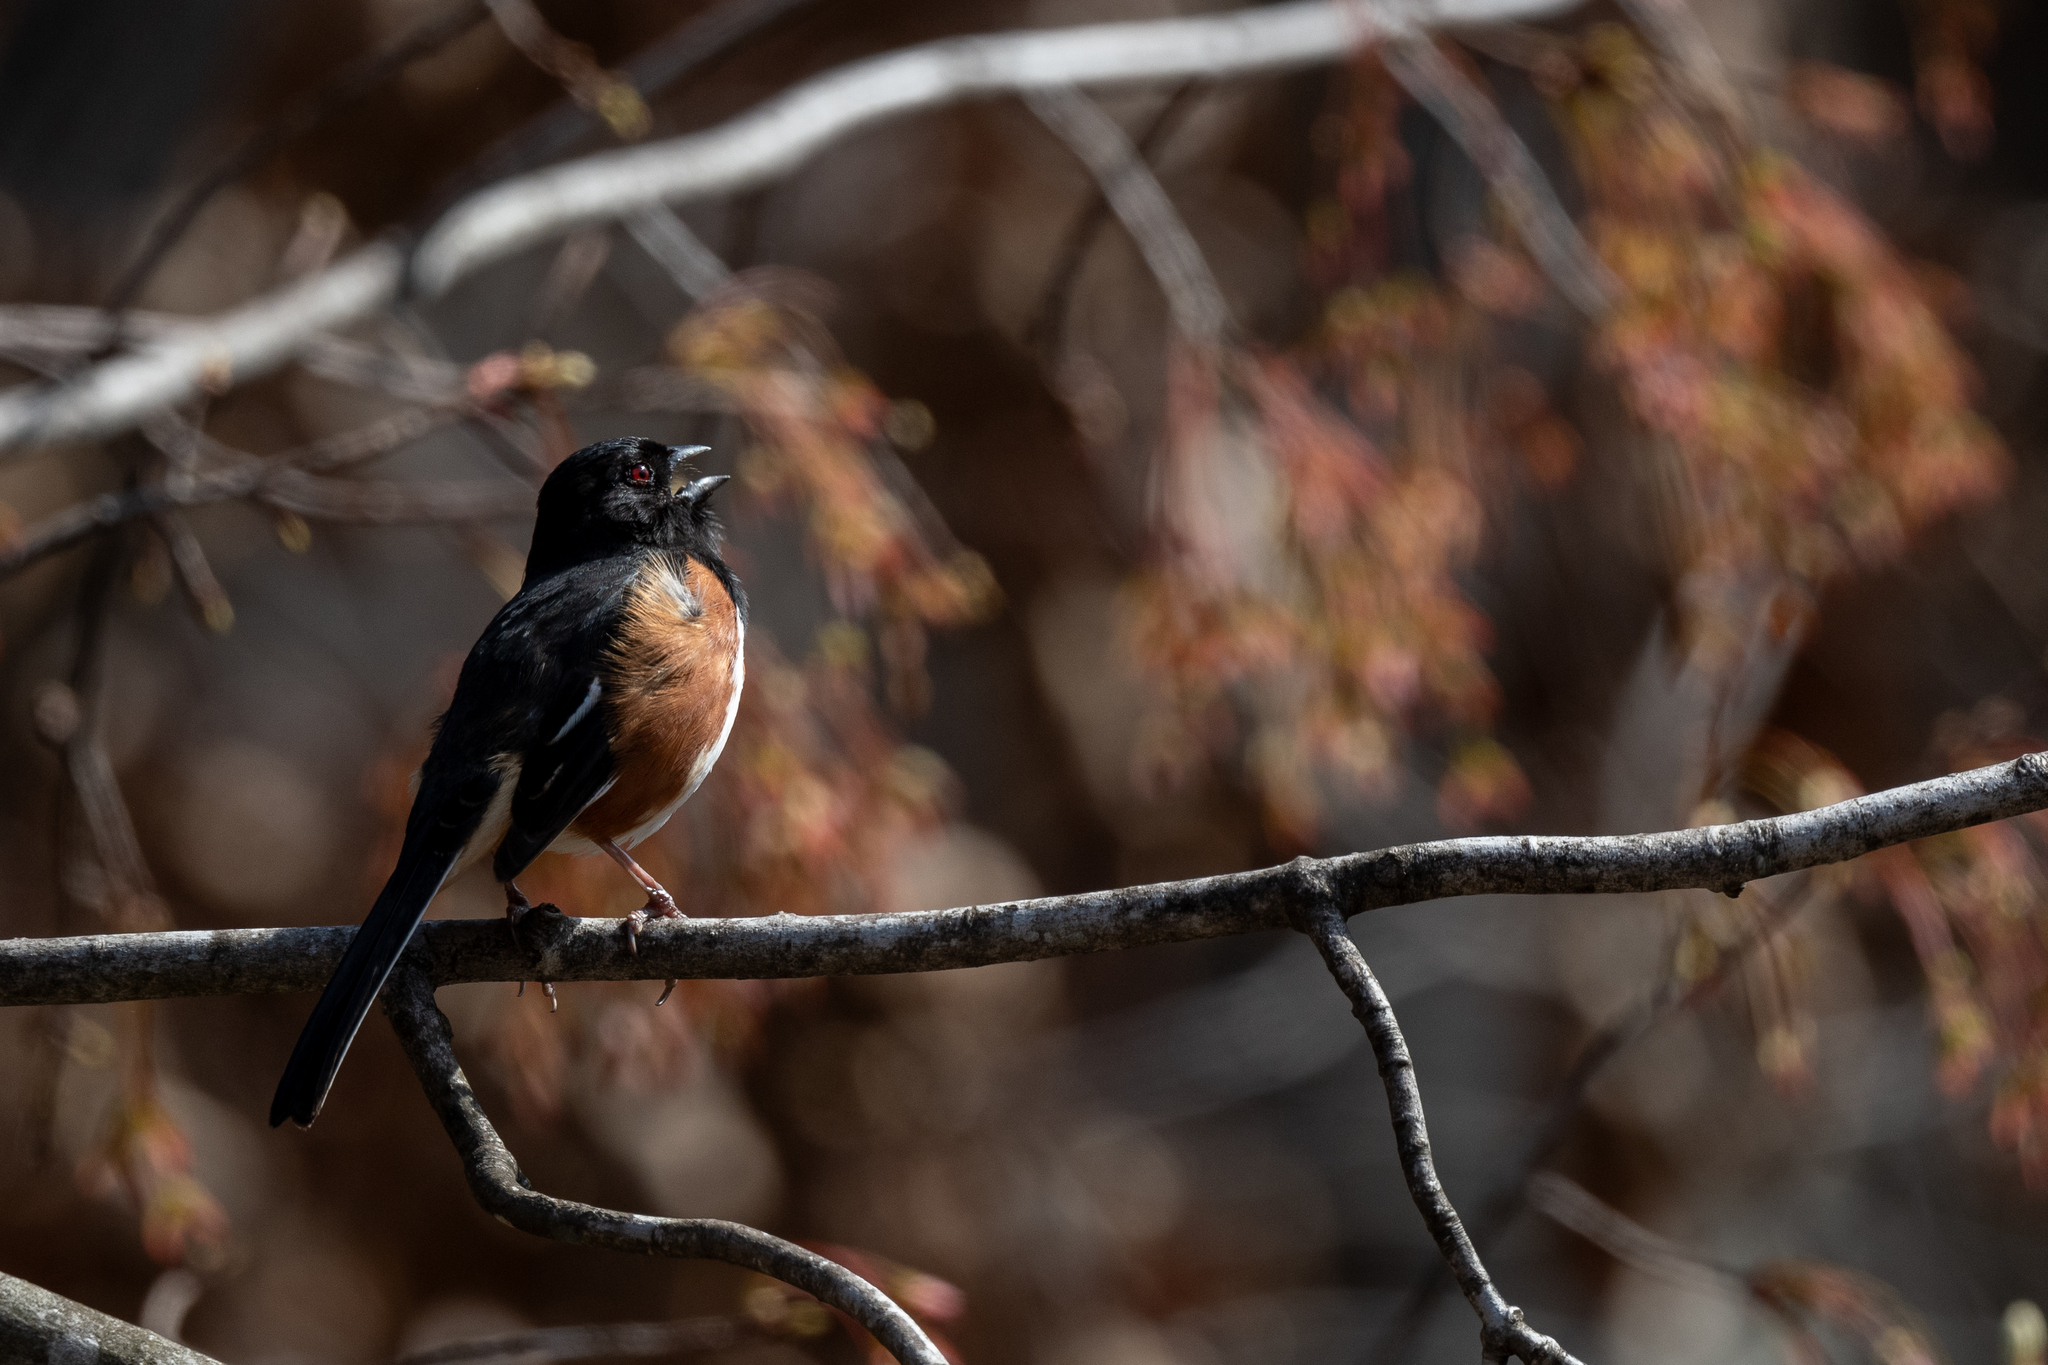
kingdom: Animalia
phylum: Chordata
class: Aves
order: Passeriformes
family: Passerellidae
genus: Pipilo
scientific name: Pipilo erythrophthalmus
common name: Eastern towhee
